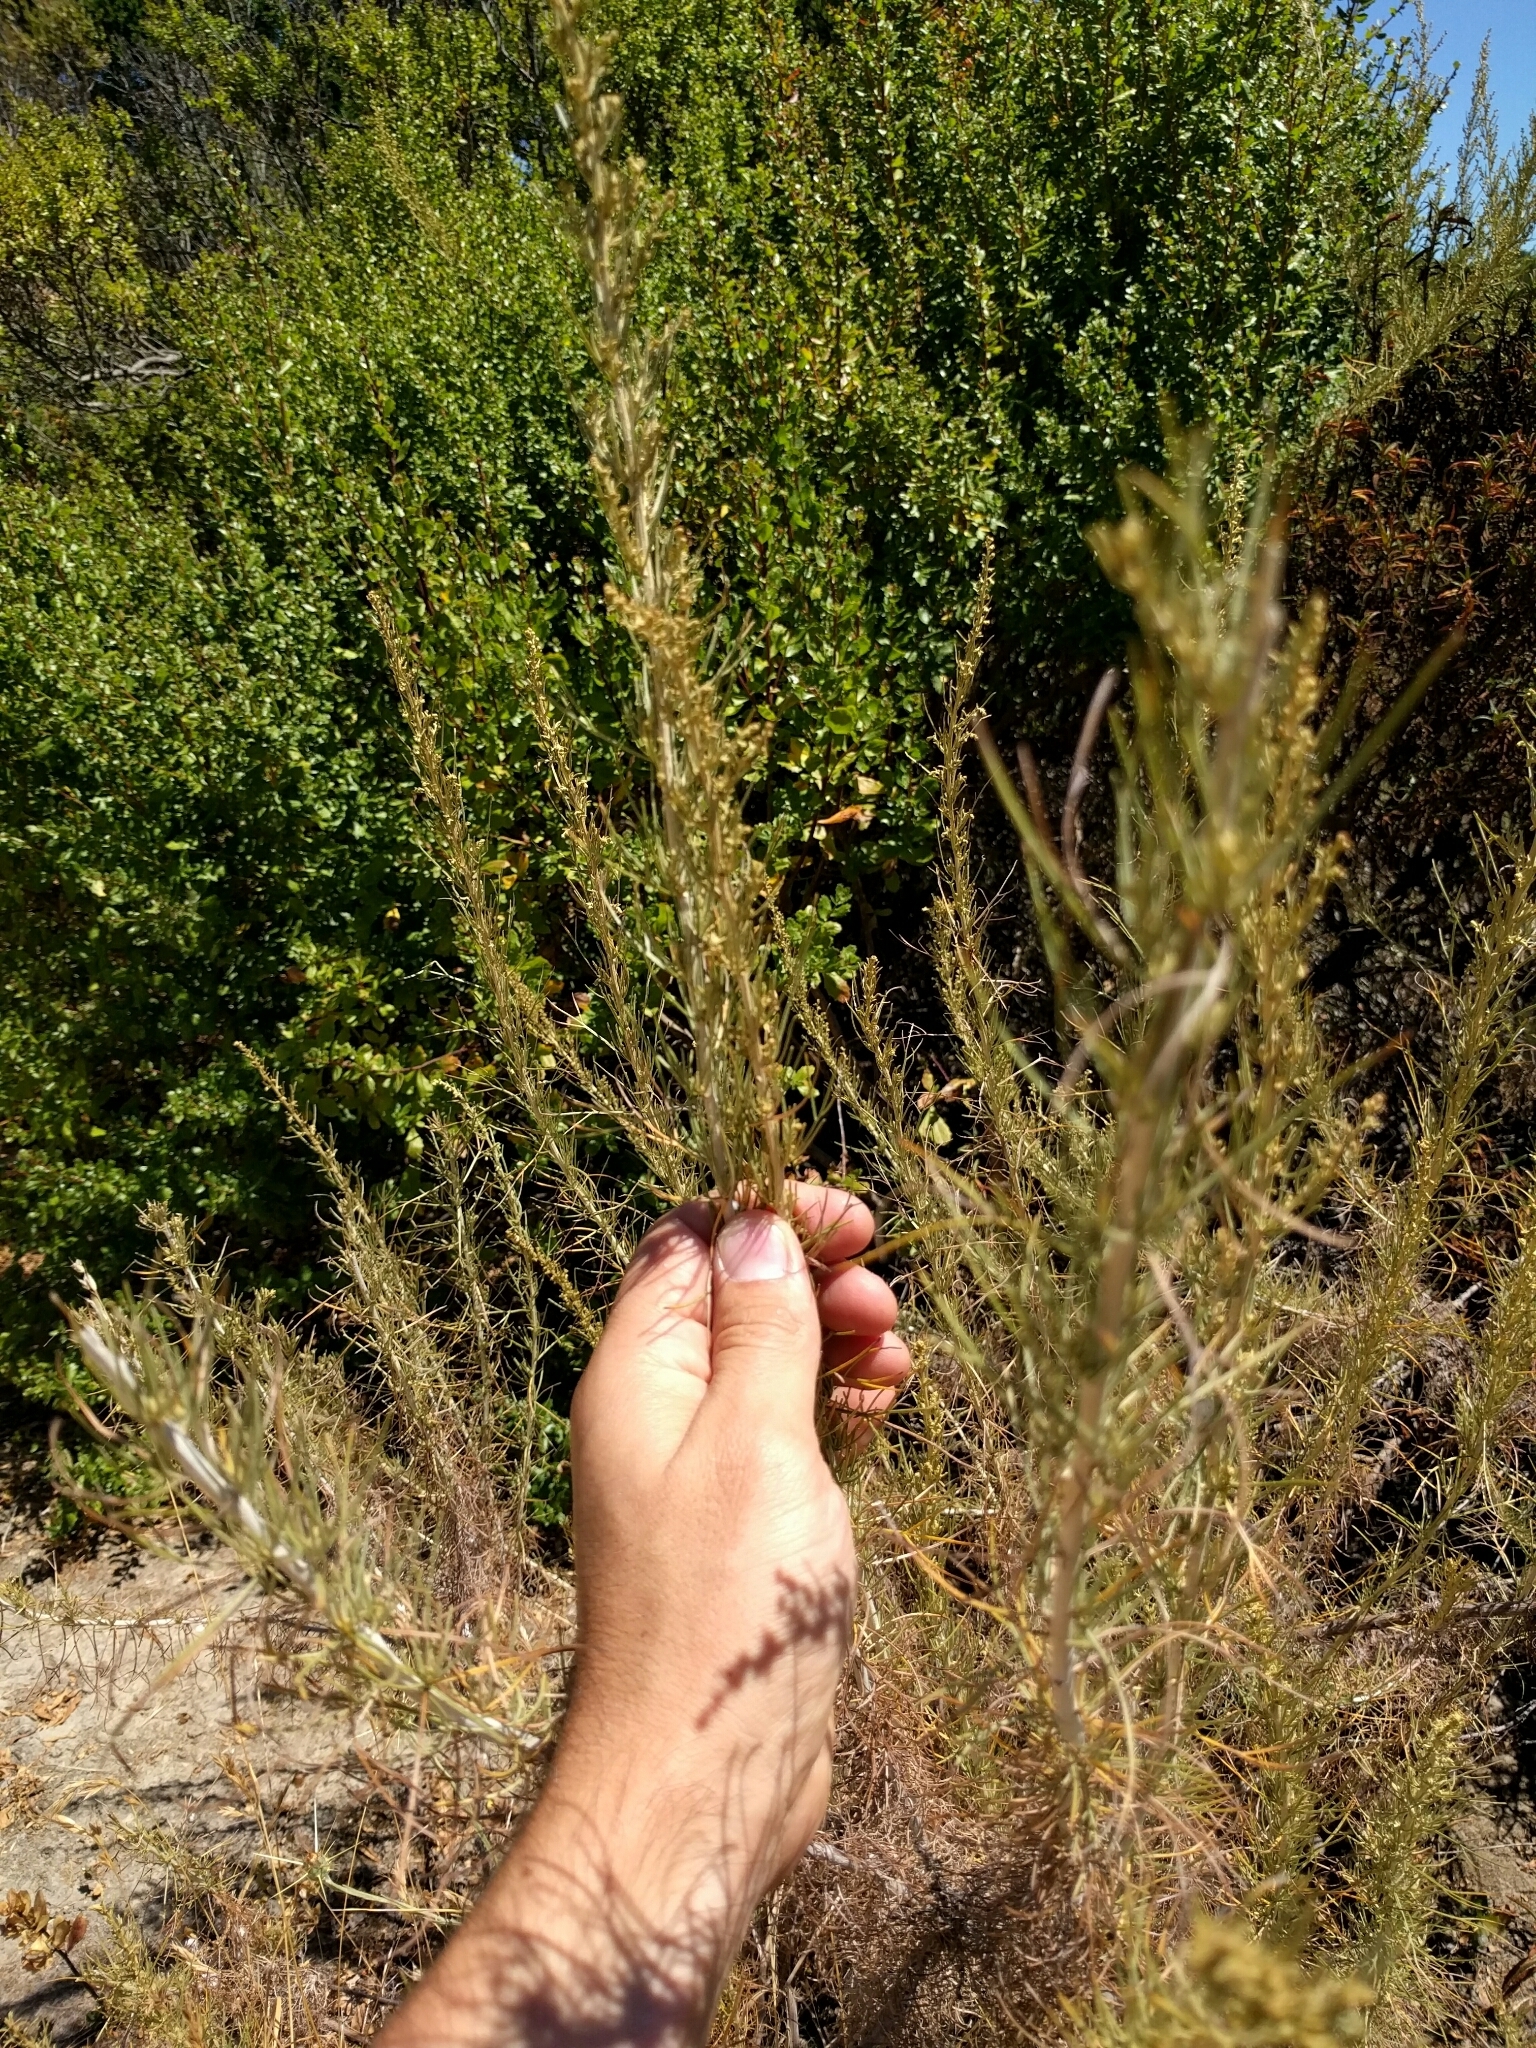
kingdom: Plantae
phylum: Tracheophyta
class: Magnoliopsida
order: Asterales
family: Asteraceae
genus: Artemisia
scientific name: Artemisia californica
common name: California sagebrush
